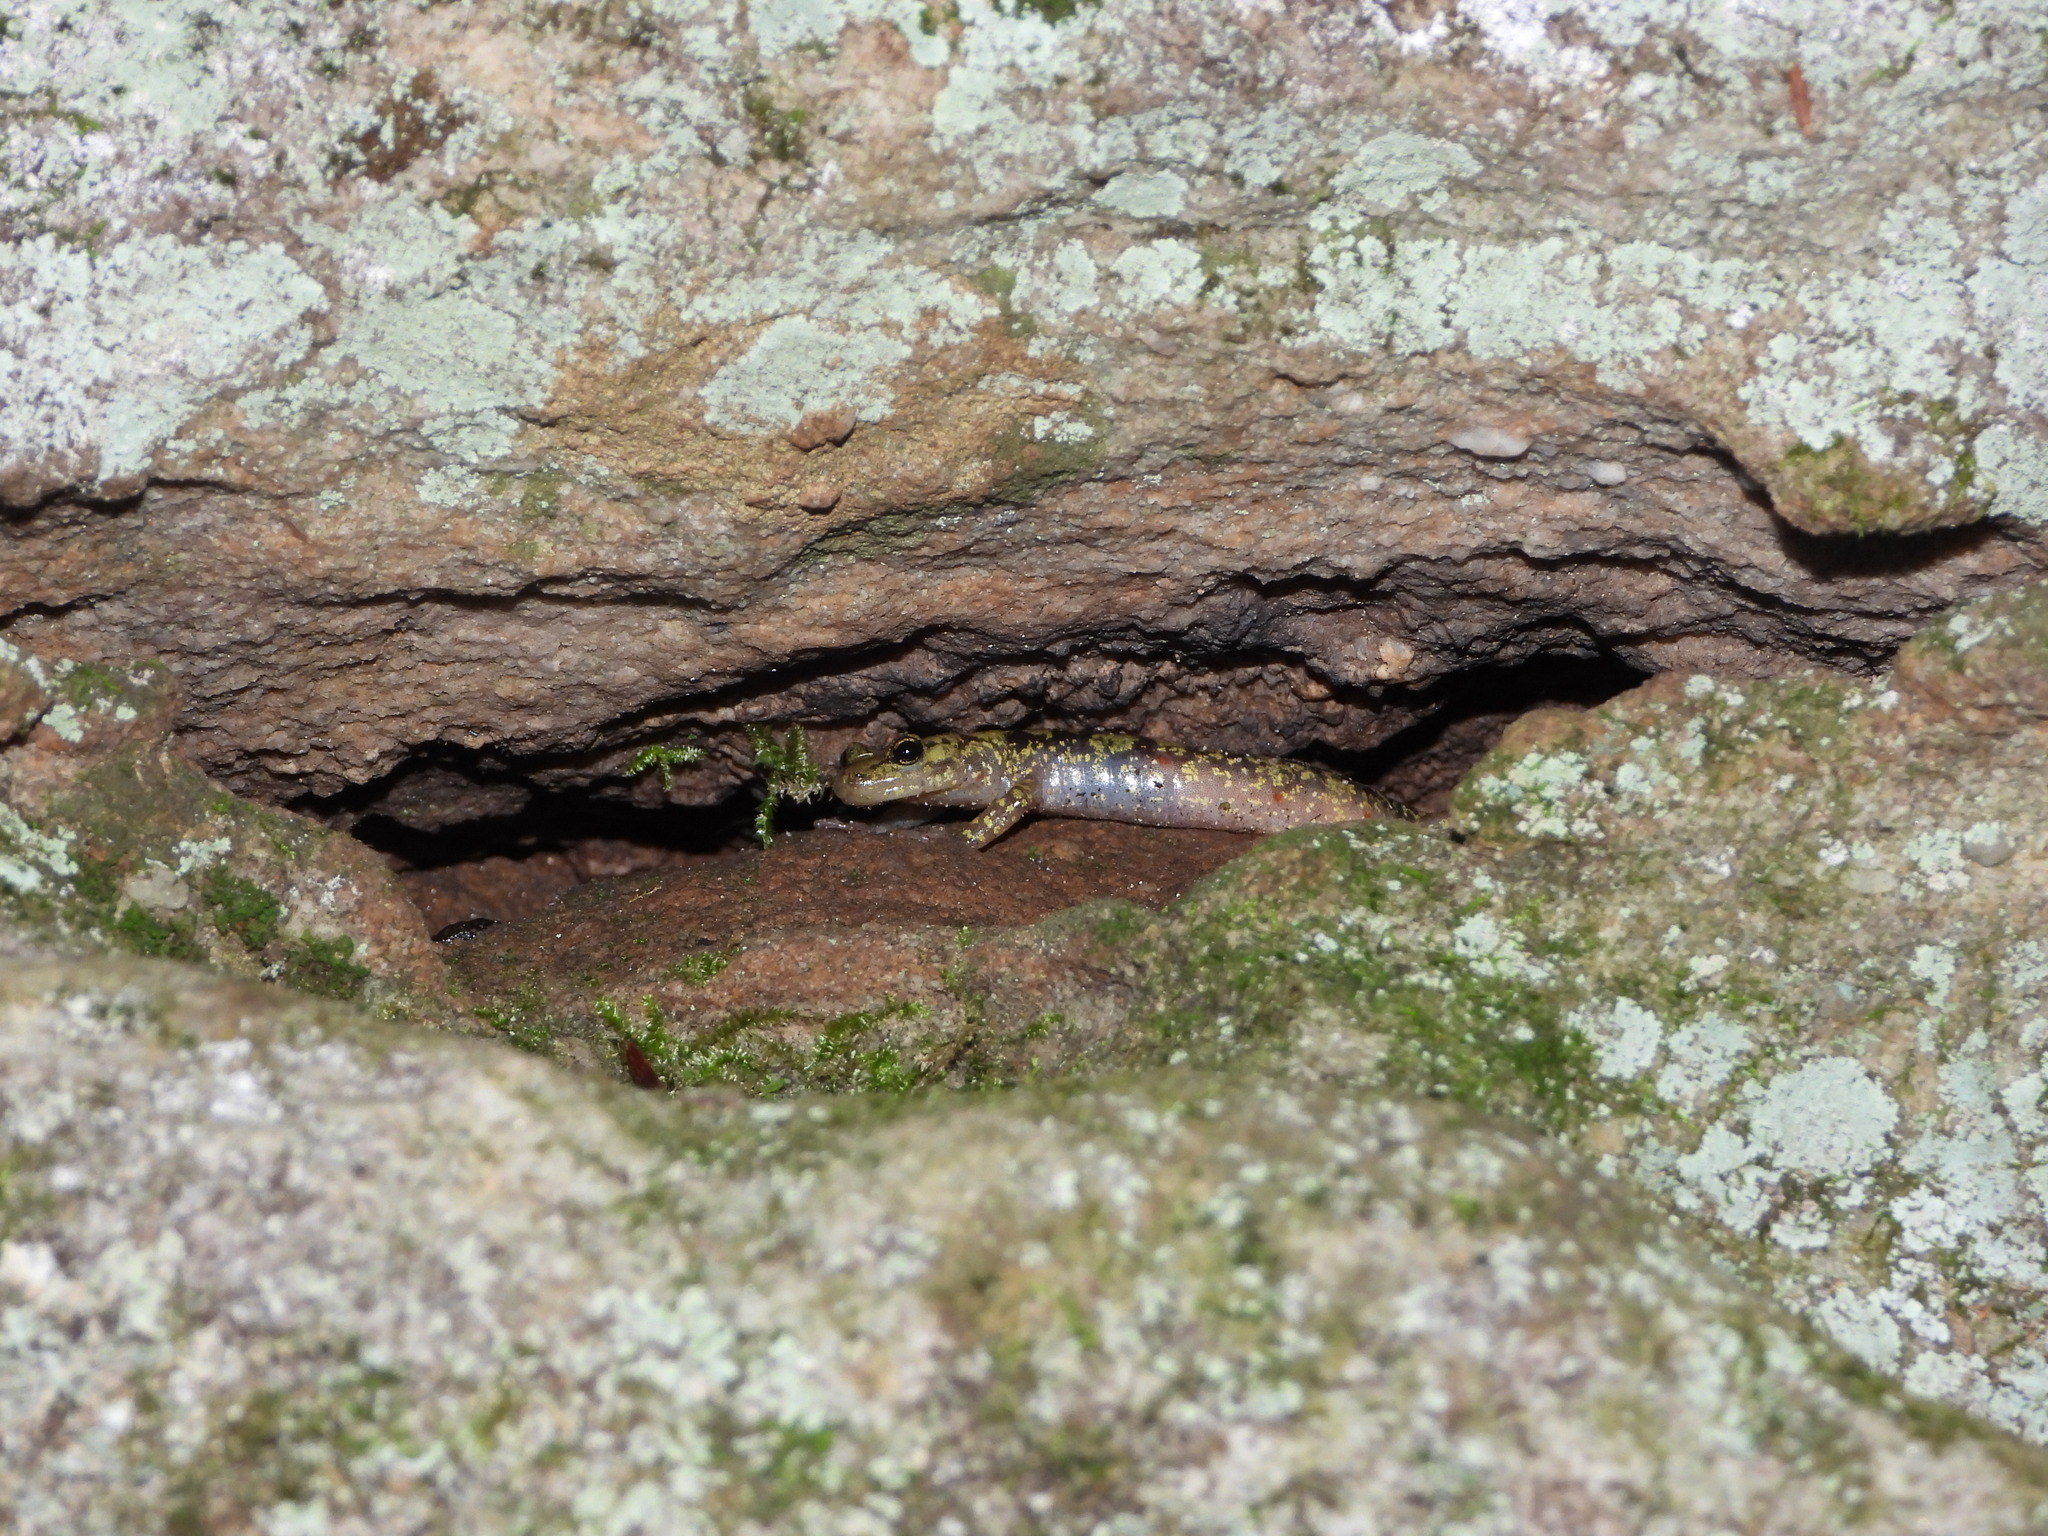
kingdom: Animalia
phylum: Chordata
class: Amphibia
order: Caudata
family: Plethodontidae
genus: Aneides
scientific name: Aneides aeneus
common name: Green salamander
